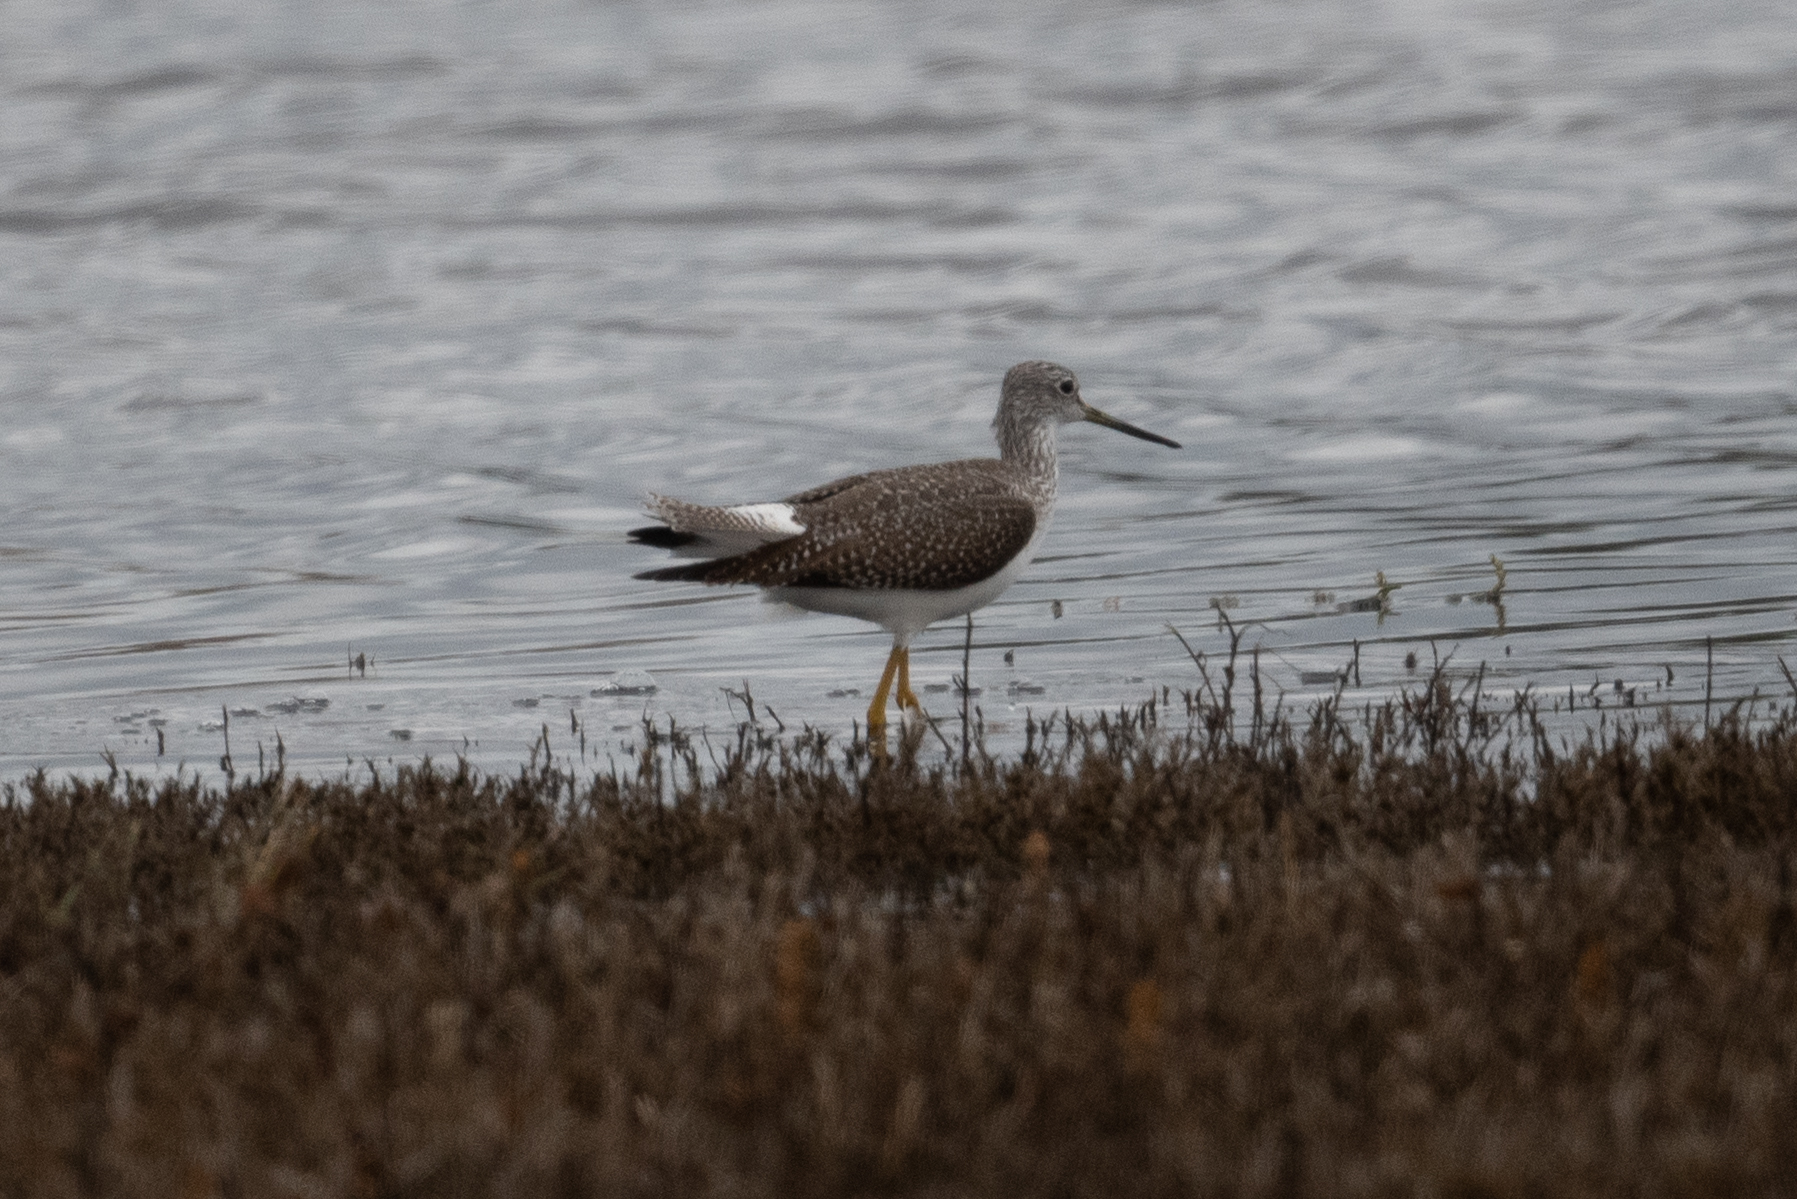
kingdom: Animalia
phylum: Chordata
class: Aves
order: Charadriiformes
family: Scolopacidae
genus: Tringa
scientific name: Tringa melanoleuca
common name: Greater yellowlegs
